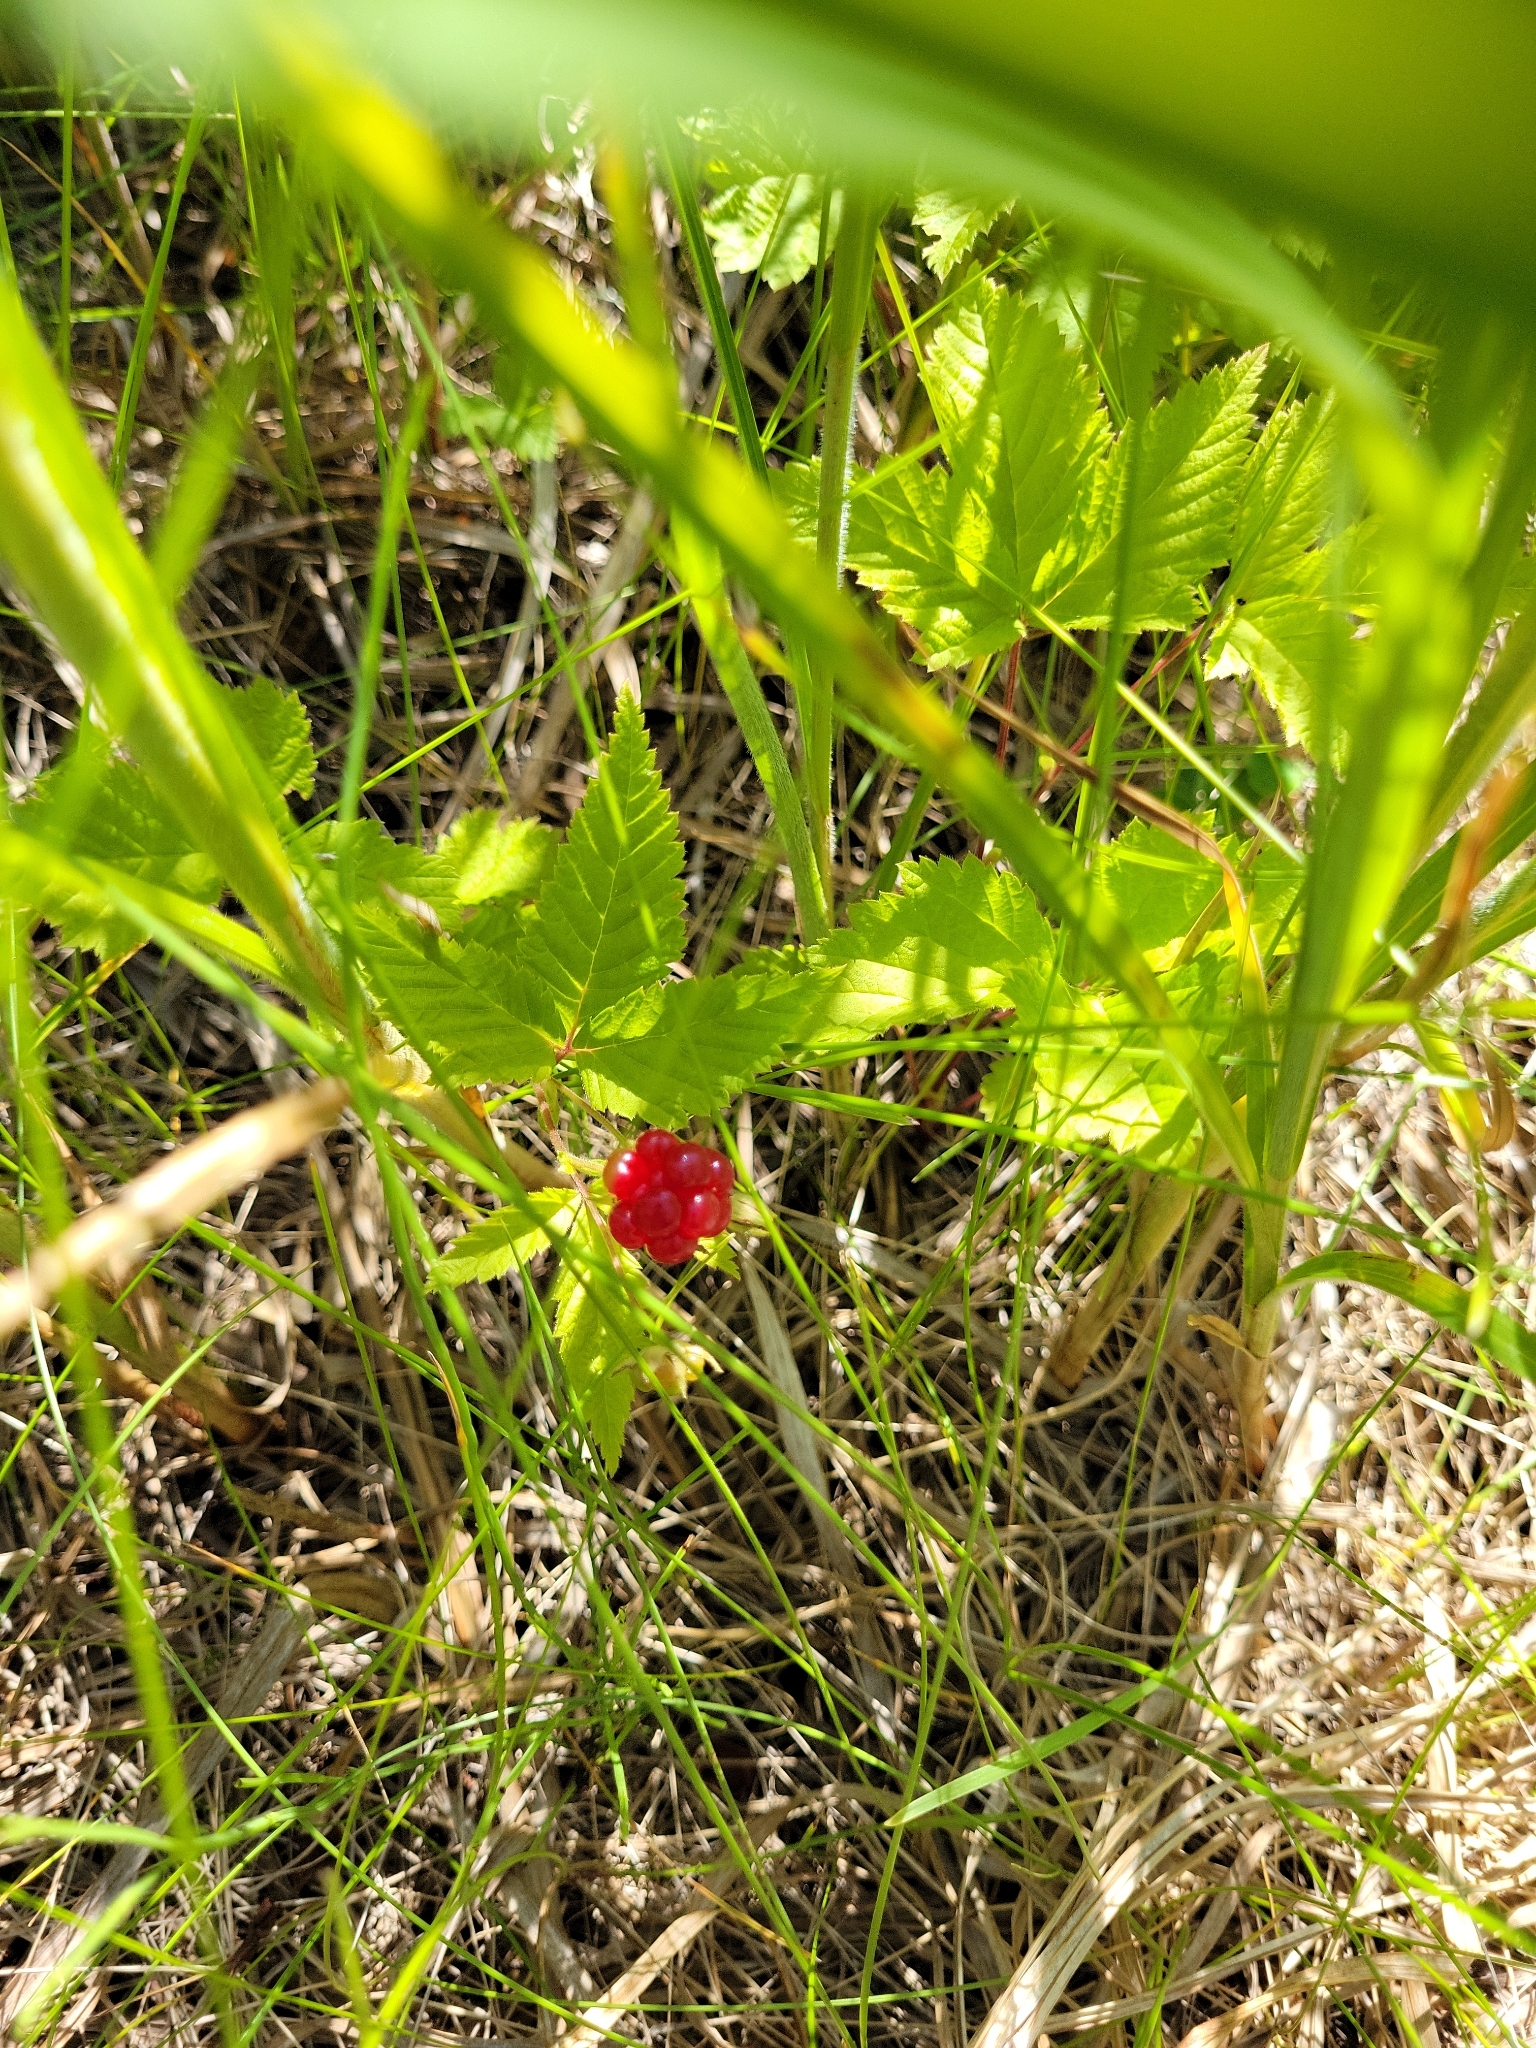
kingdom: Plantae
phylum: Tracheophyta
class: Magnoliopsida
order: Rosales
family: Rosaceae
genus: Rubus
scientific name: Rubus pubescens
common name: Dwarf raspberry
